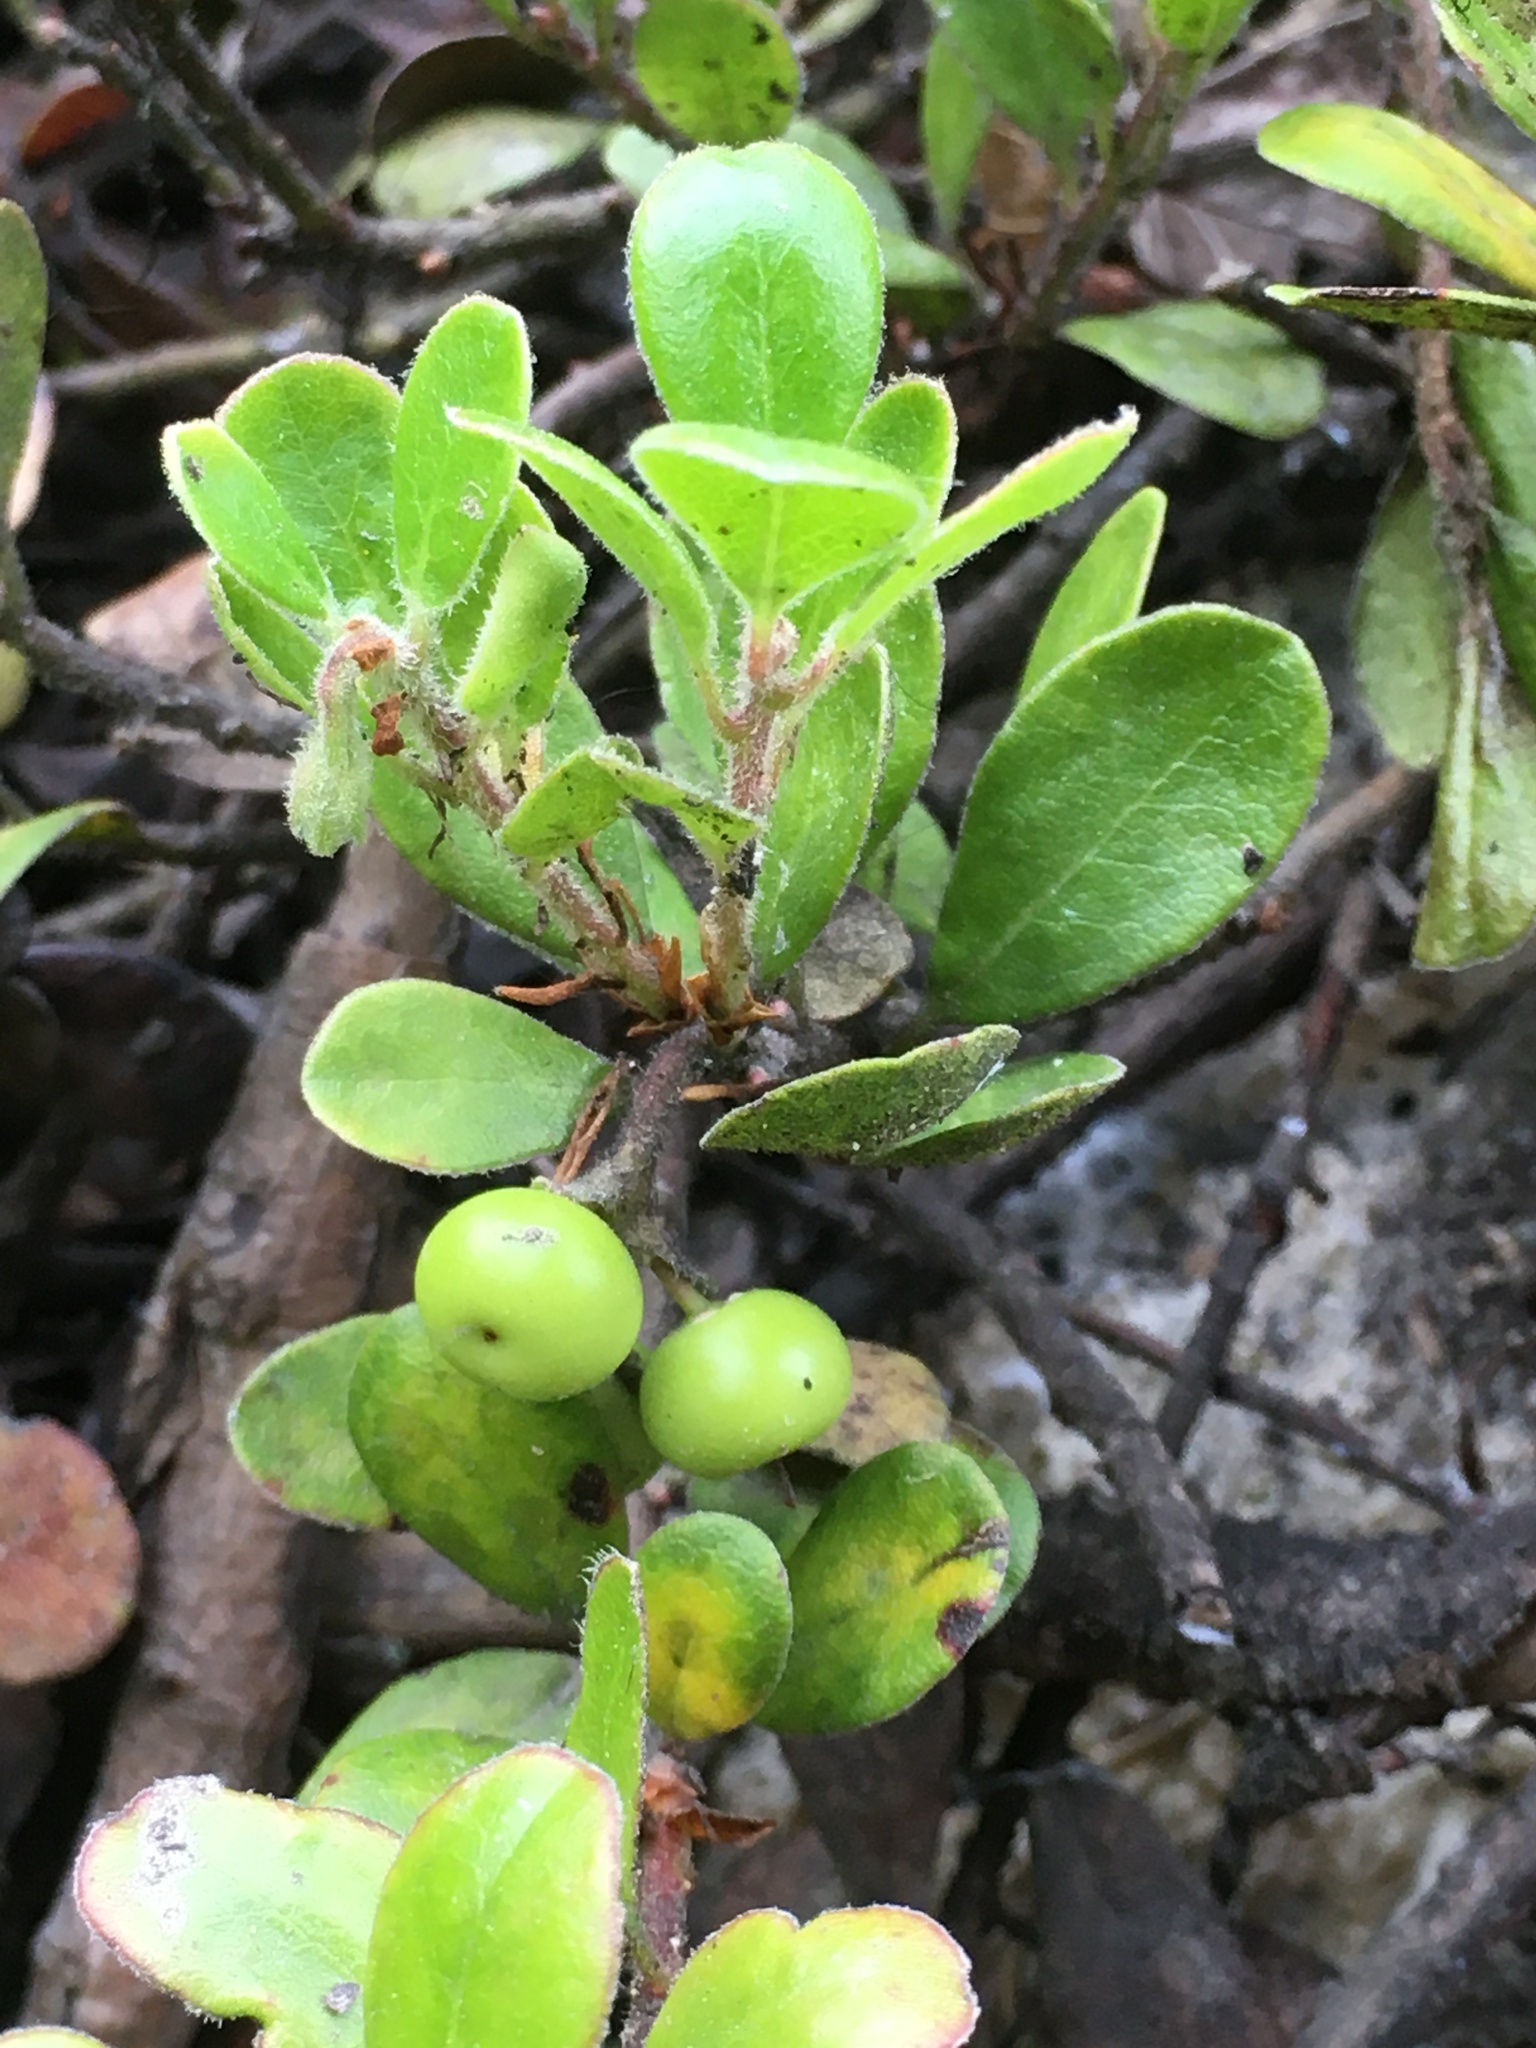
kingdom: Plantae
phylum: Tracheophyta
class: Magnoliopsida
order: Ericales
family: Ericaceae
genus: Arctostaphylos
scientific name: Arctostaphylos uva-ursi
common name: Bearberry
